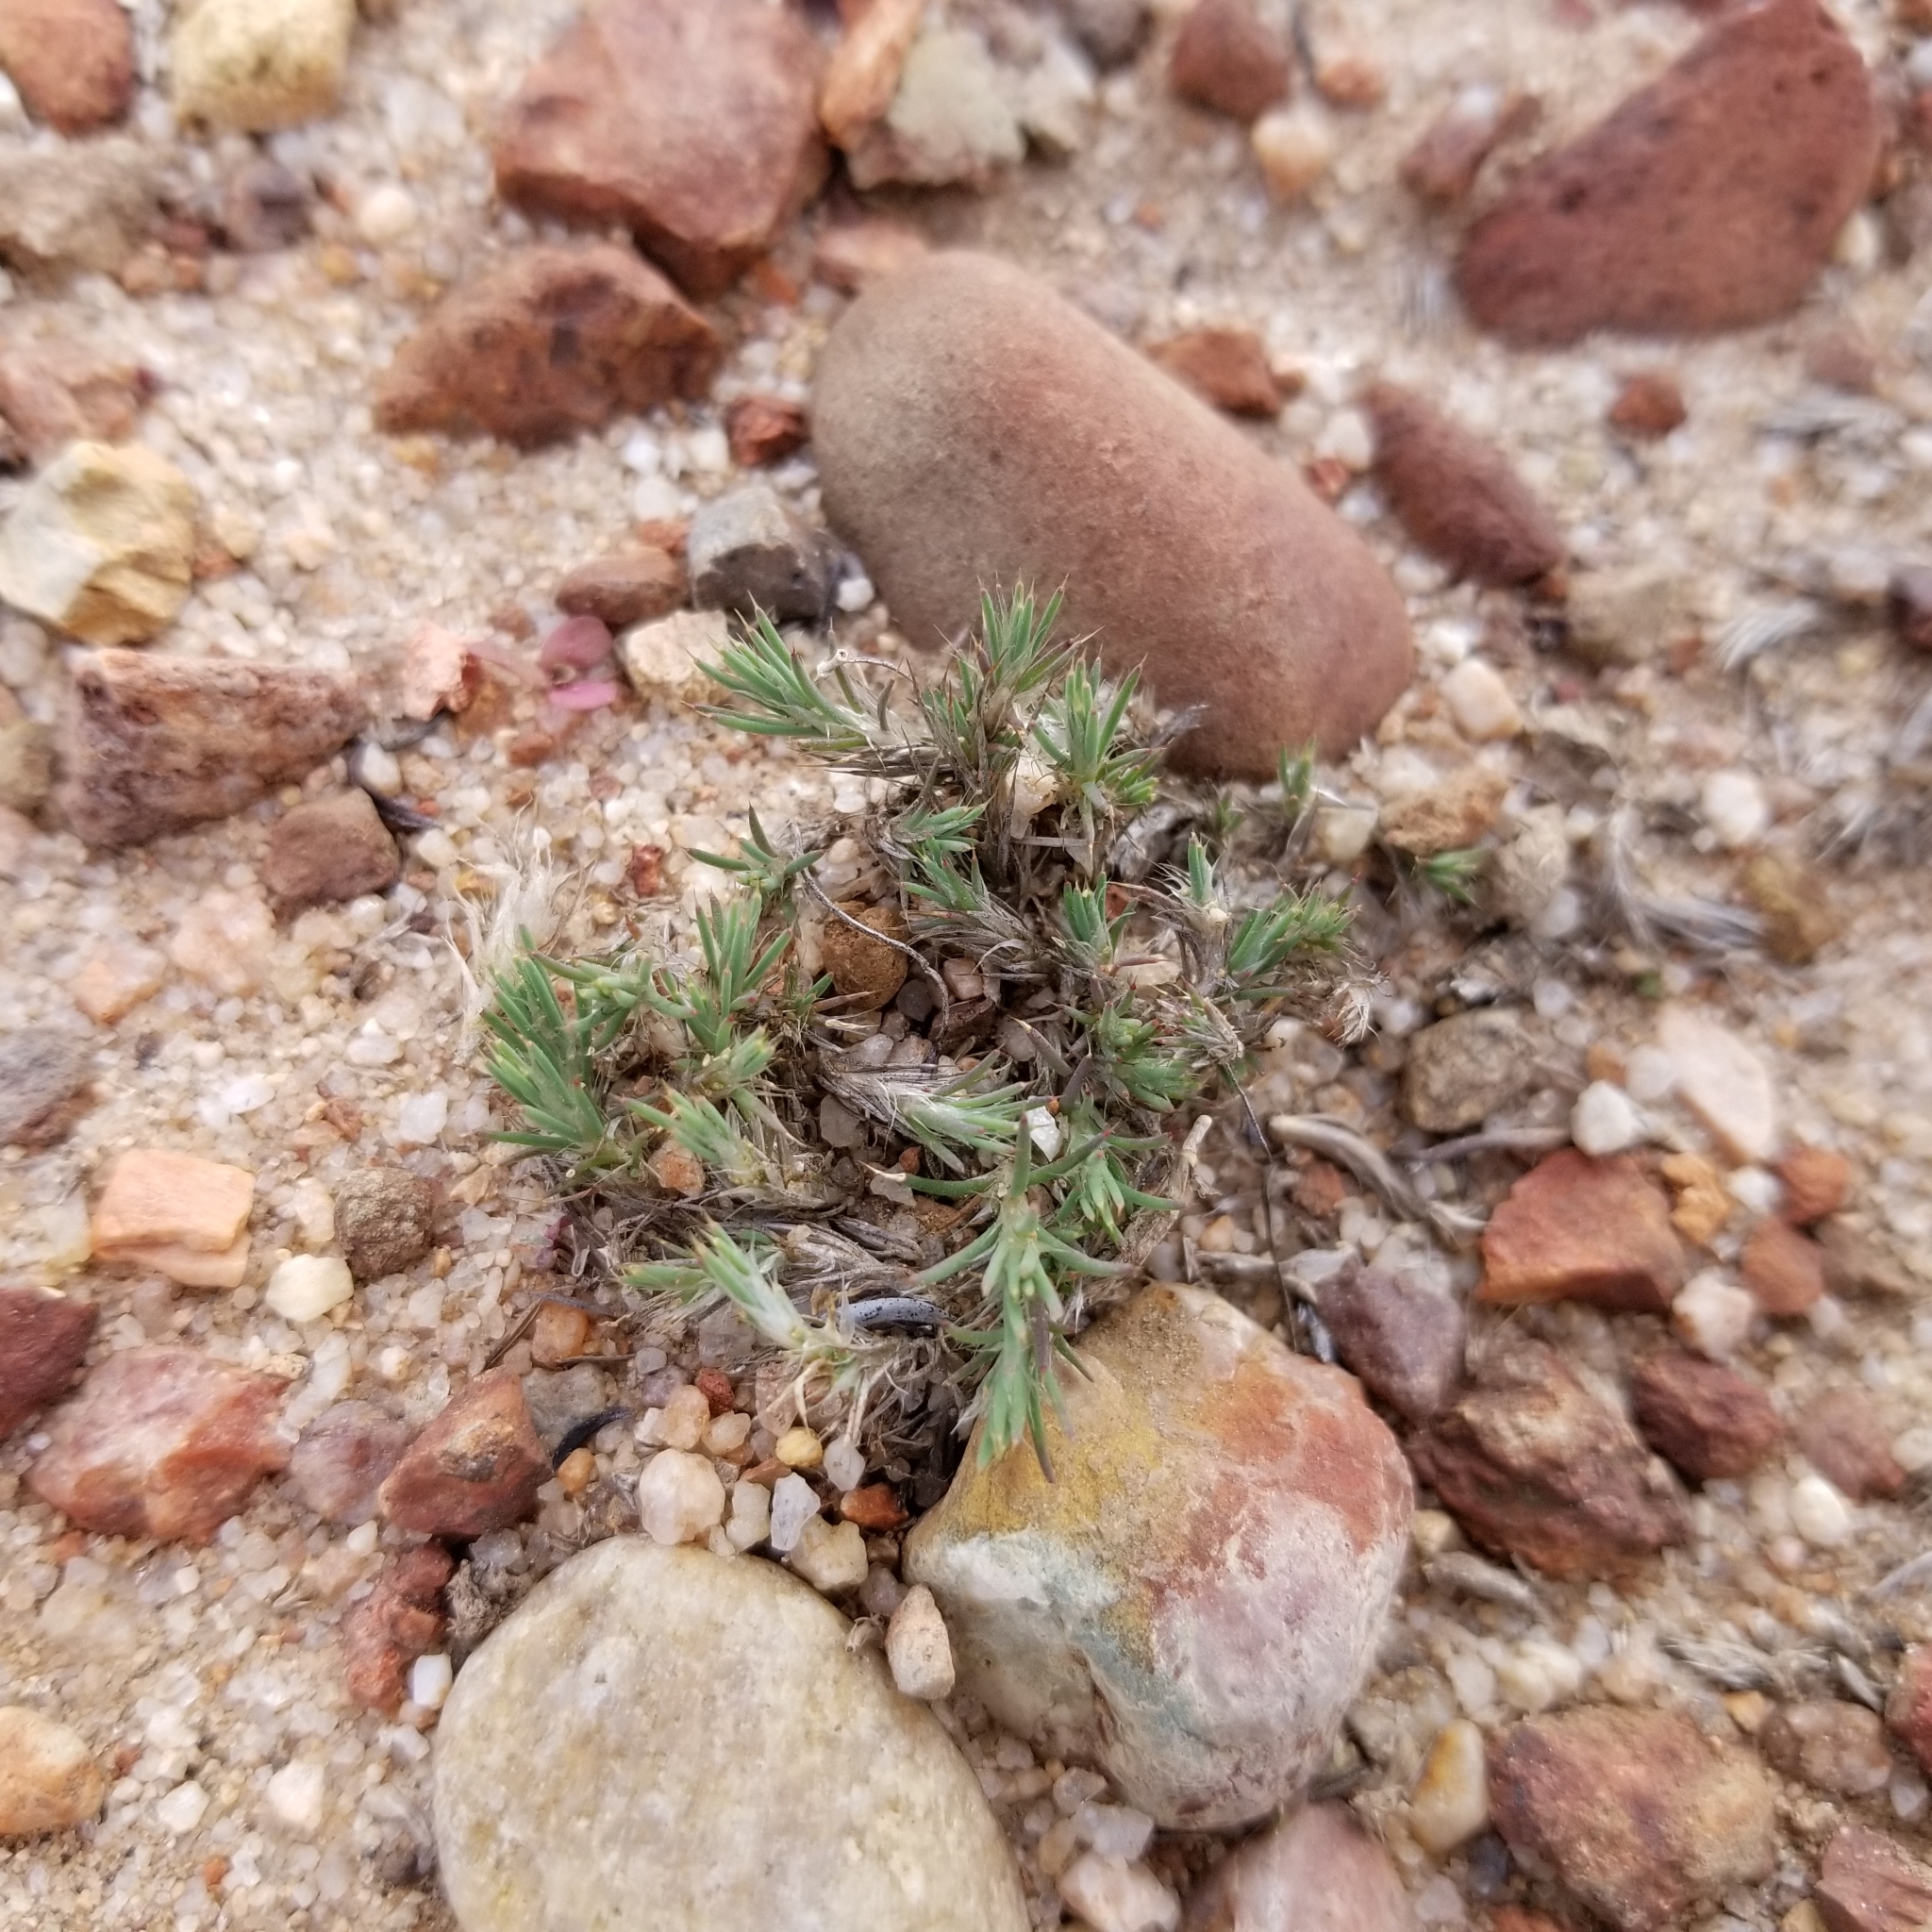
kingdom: Plantae
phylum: Tracheophyta
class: Magnoliopsida
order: Caryophyllales
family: Caryophyllaceae
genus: Cardionema
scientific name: Cardionema ramosissima
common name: Sandcarpet
